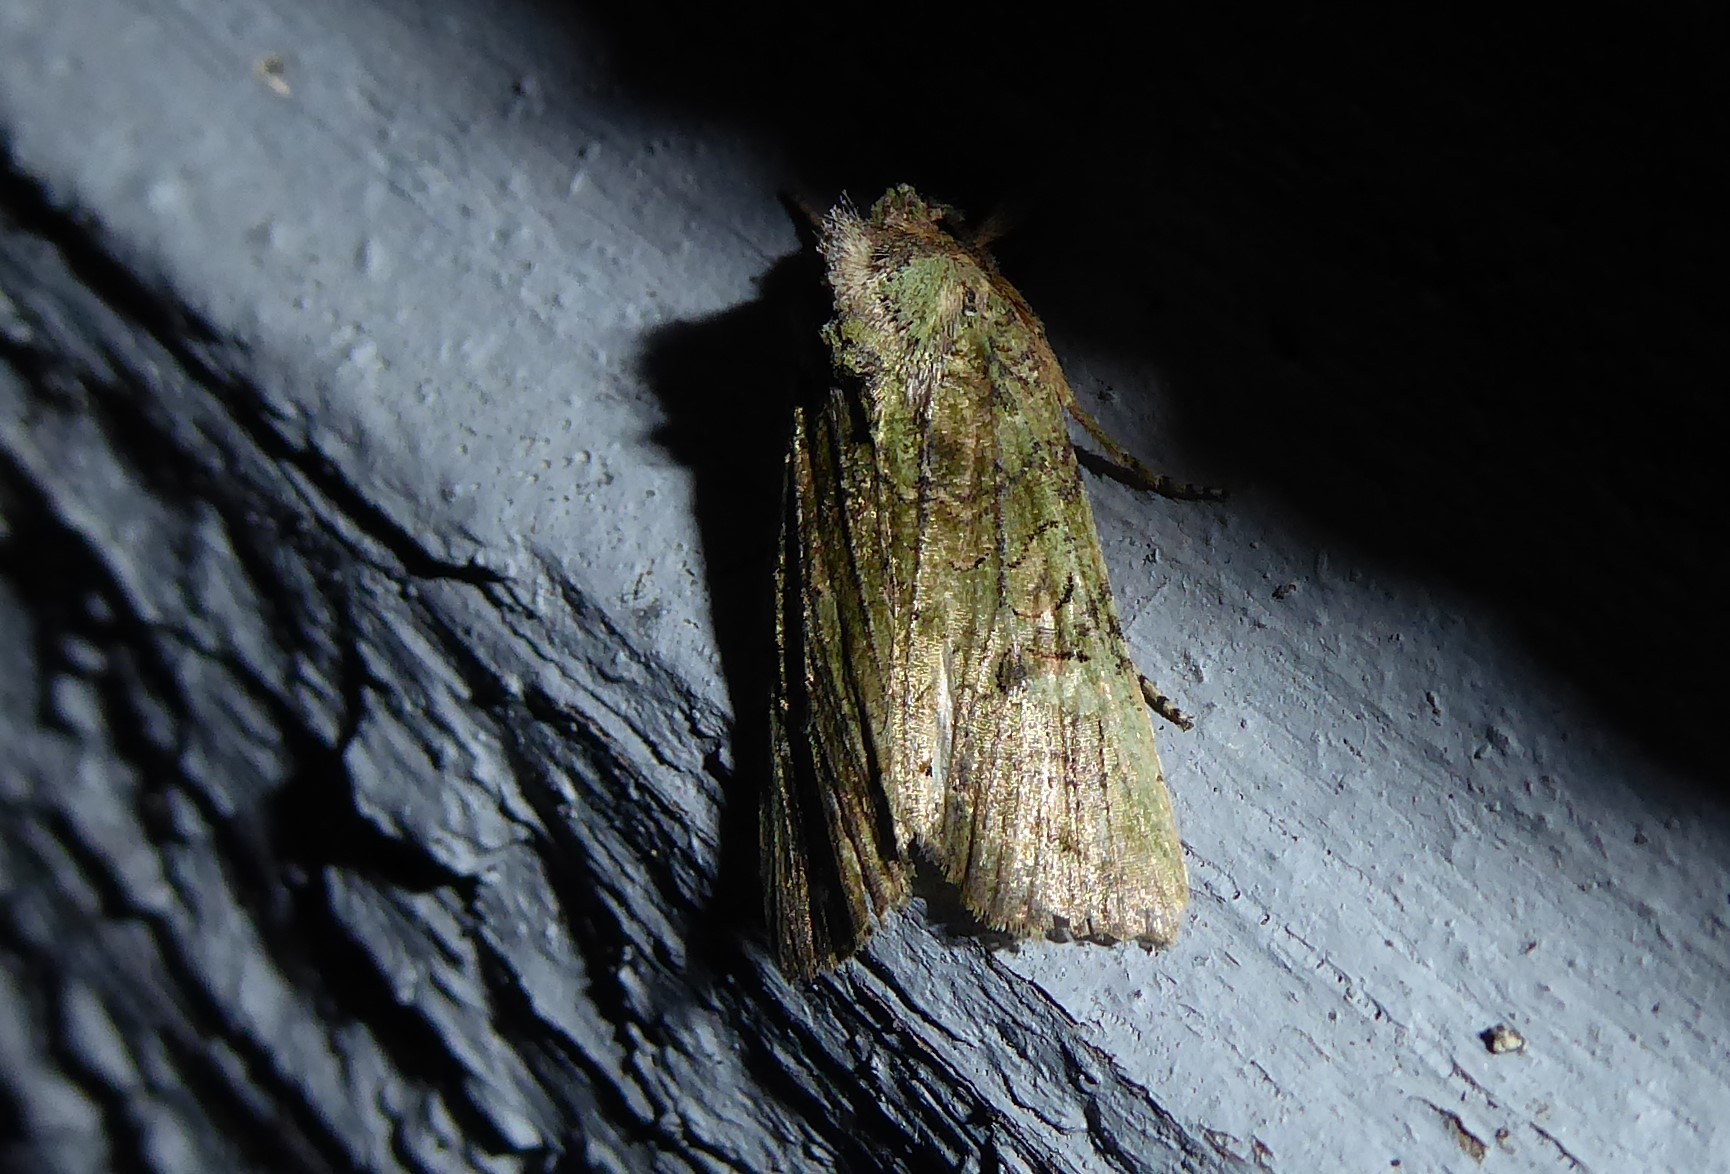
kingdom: Animalia
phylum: Arthropoda
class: Insecta
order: Lepidoptera
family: Noctuidae
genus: Meterana
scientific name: Meterana levis
